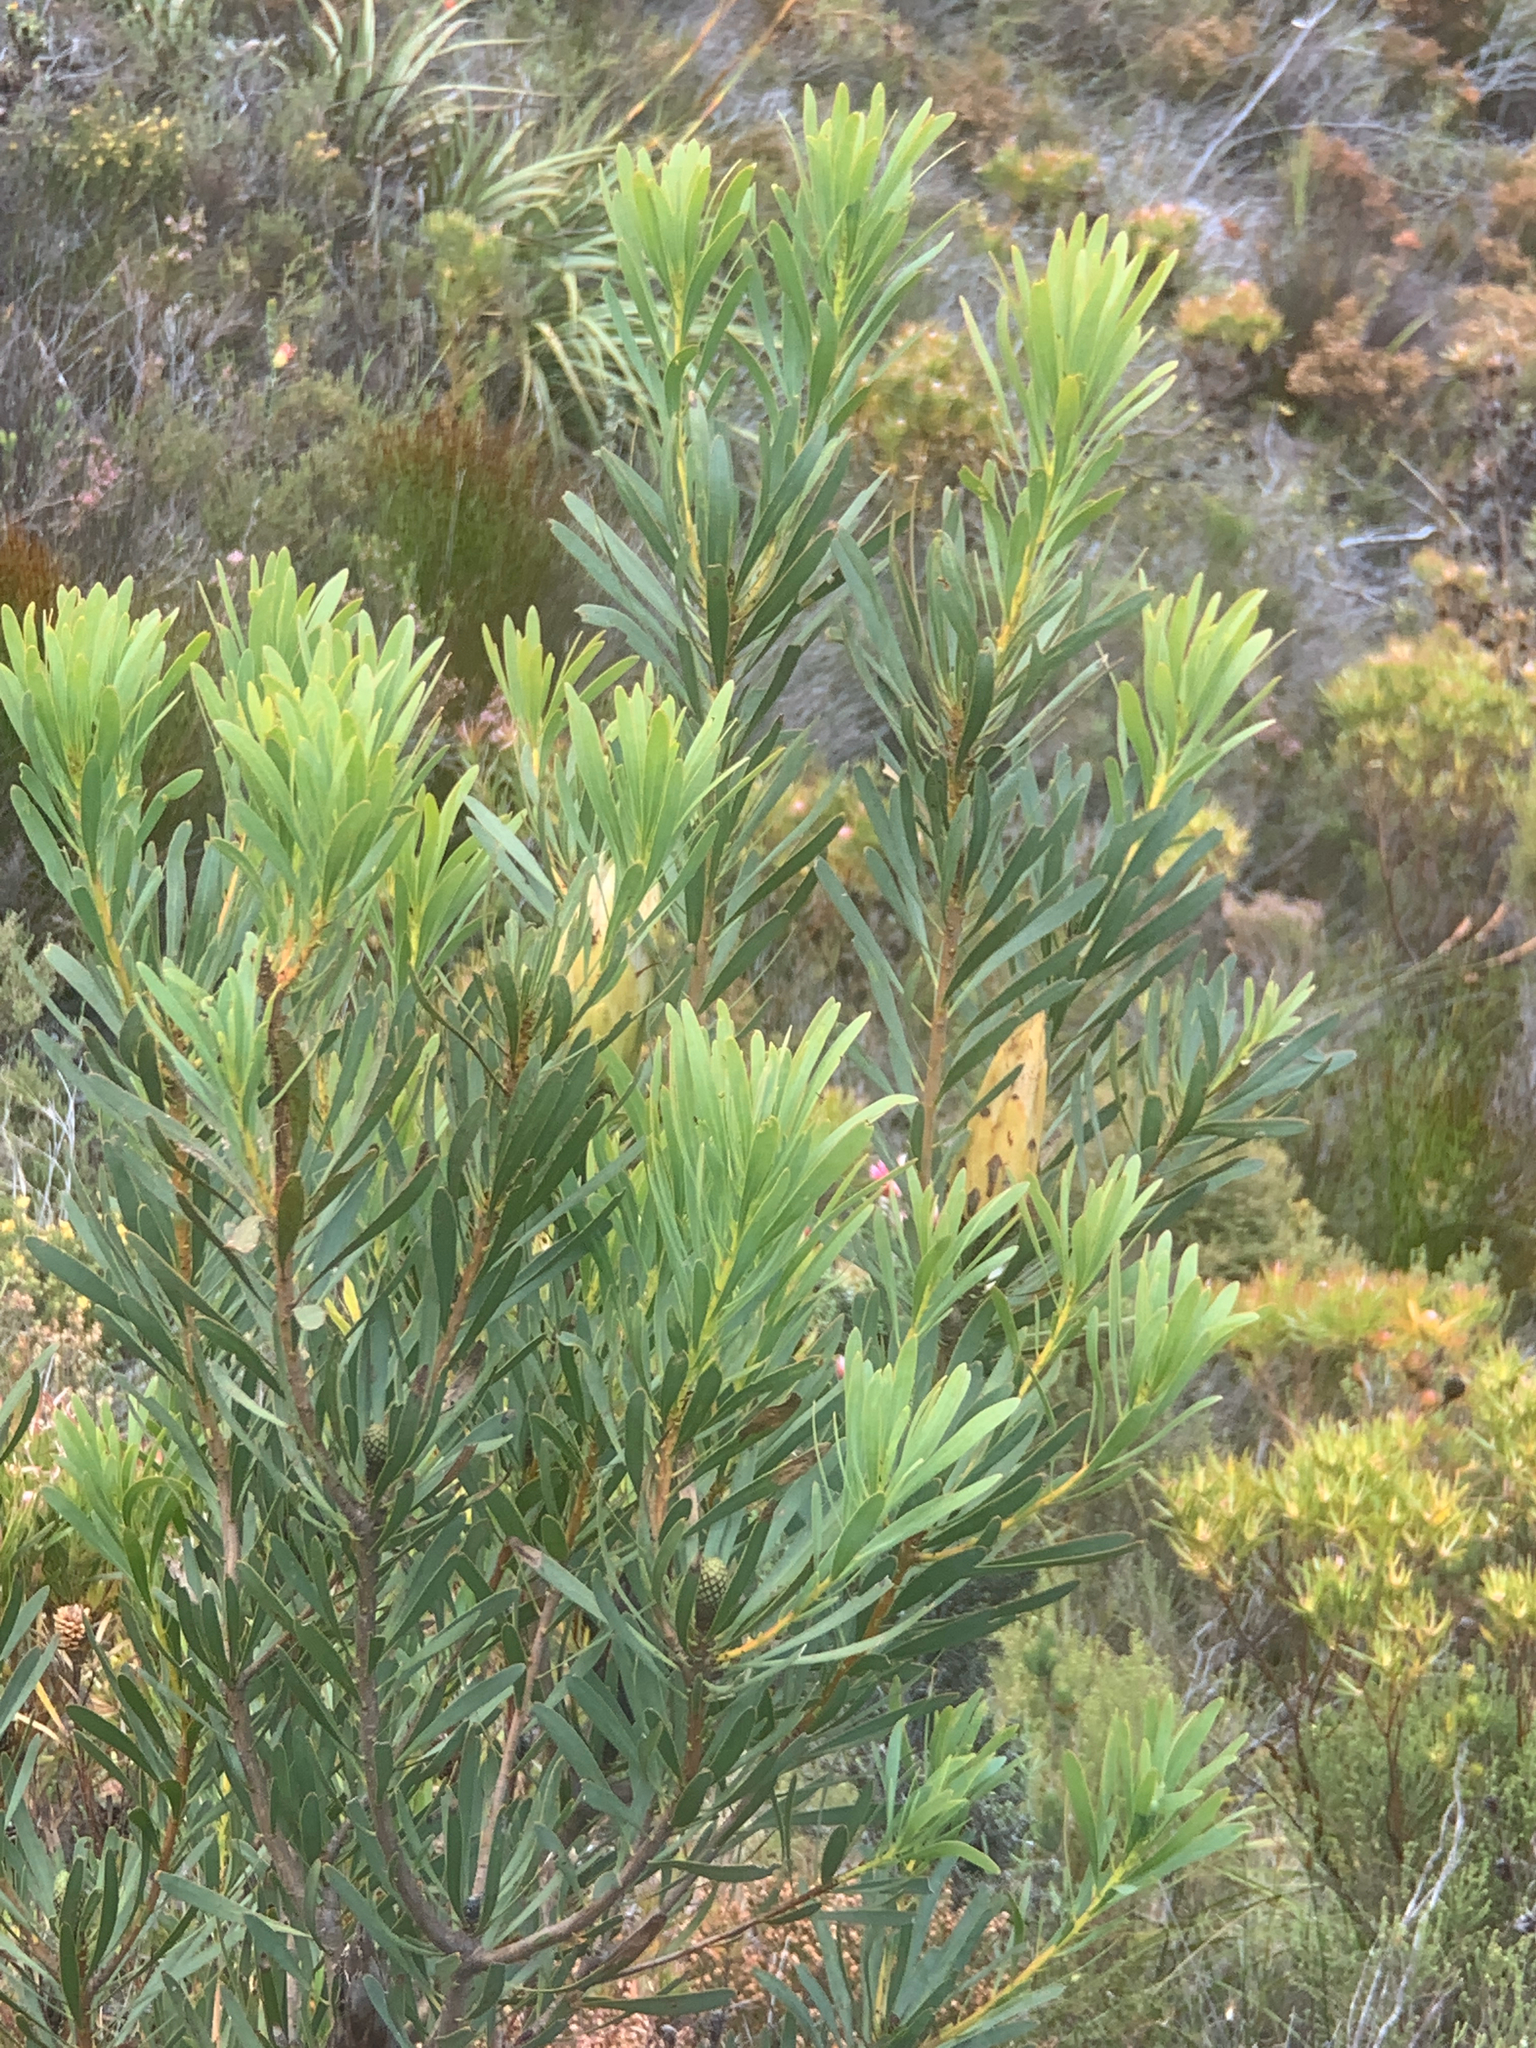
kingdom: Plantae
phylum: Tracheophyta
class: Magnoliopsida
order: Proteales
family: Proteaceae
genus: Protea
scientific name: Protea repens
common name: Sugarbush
